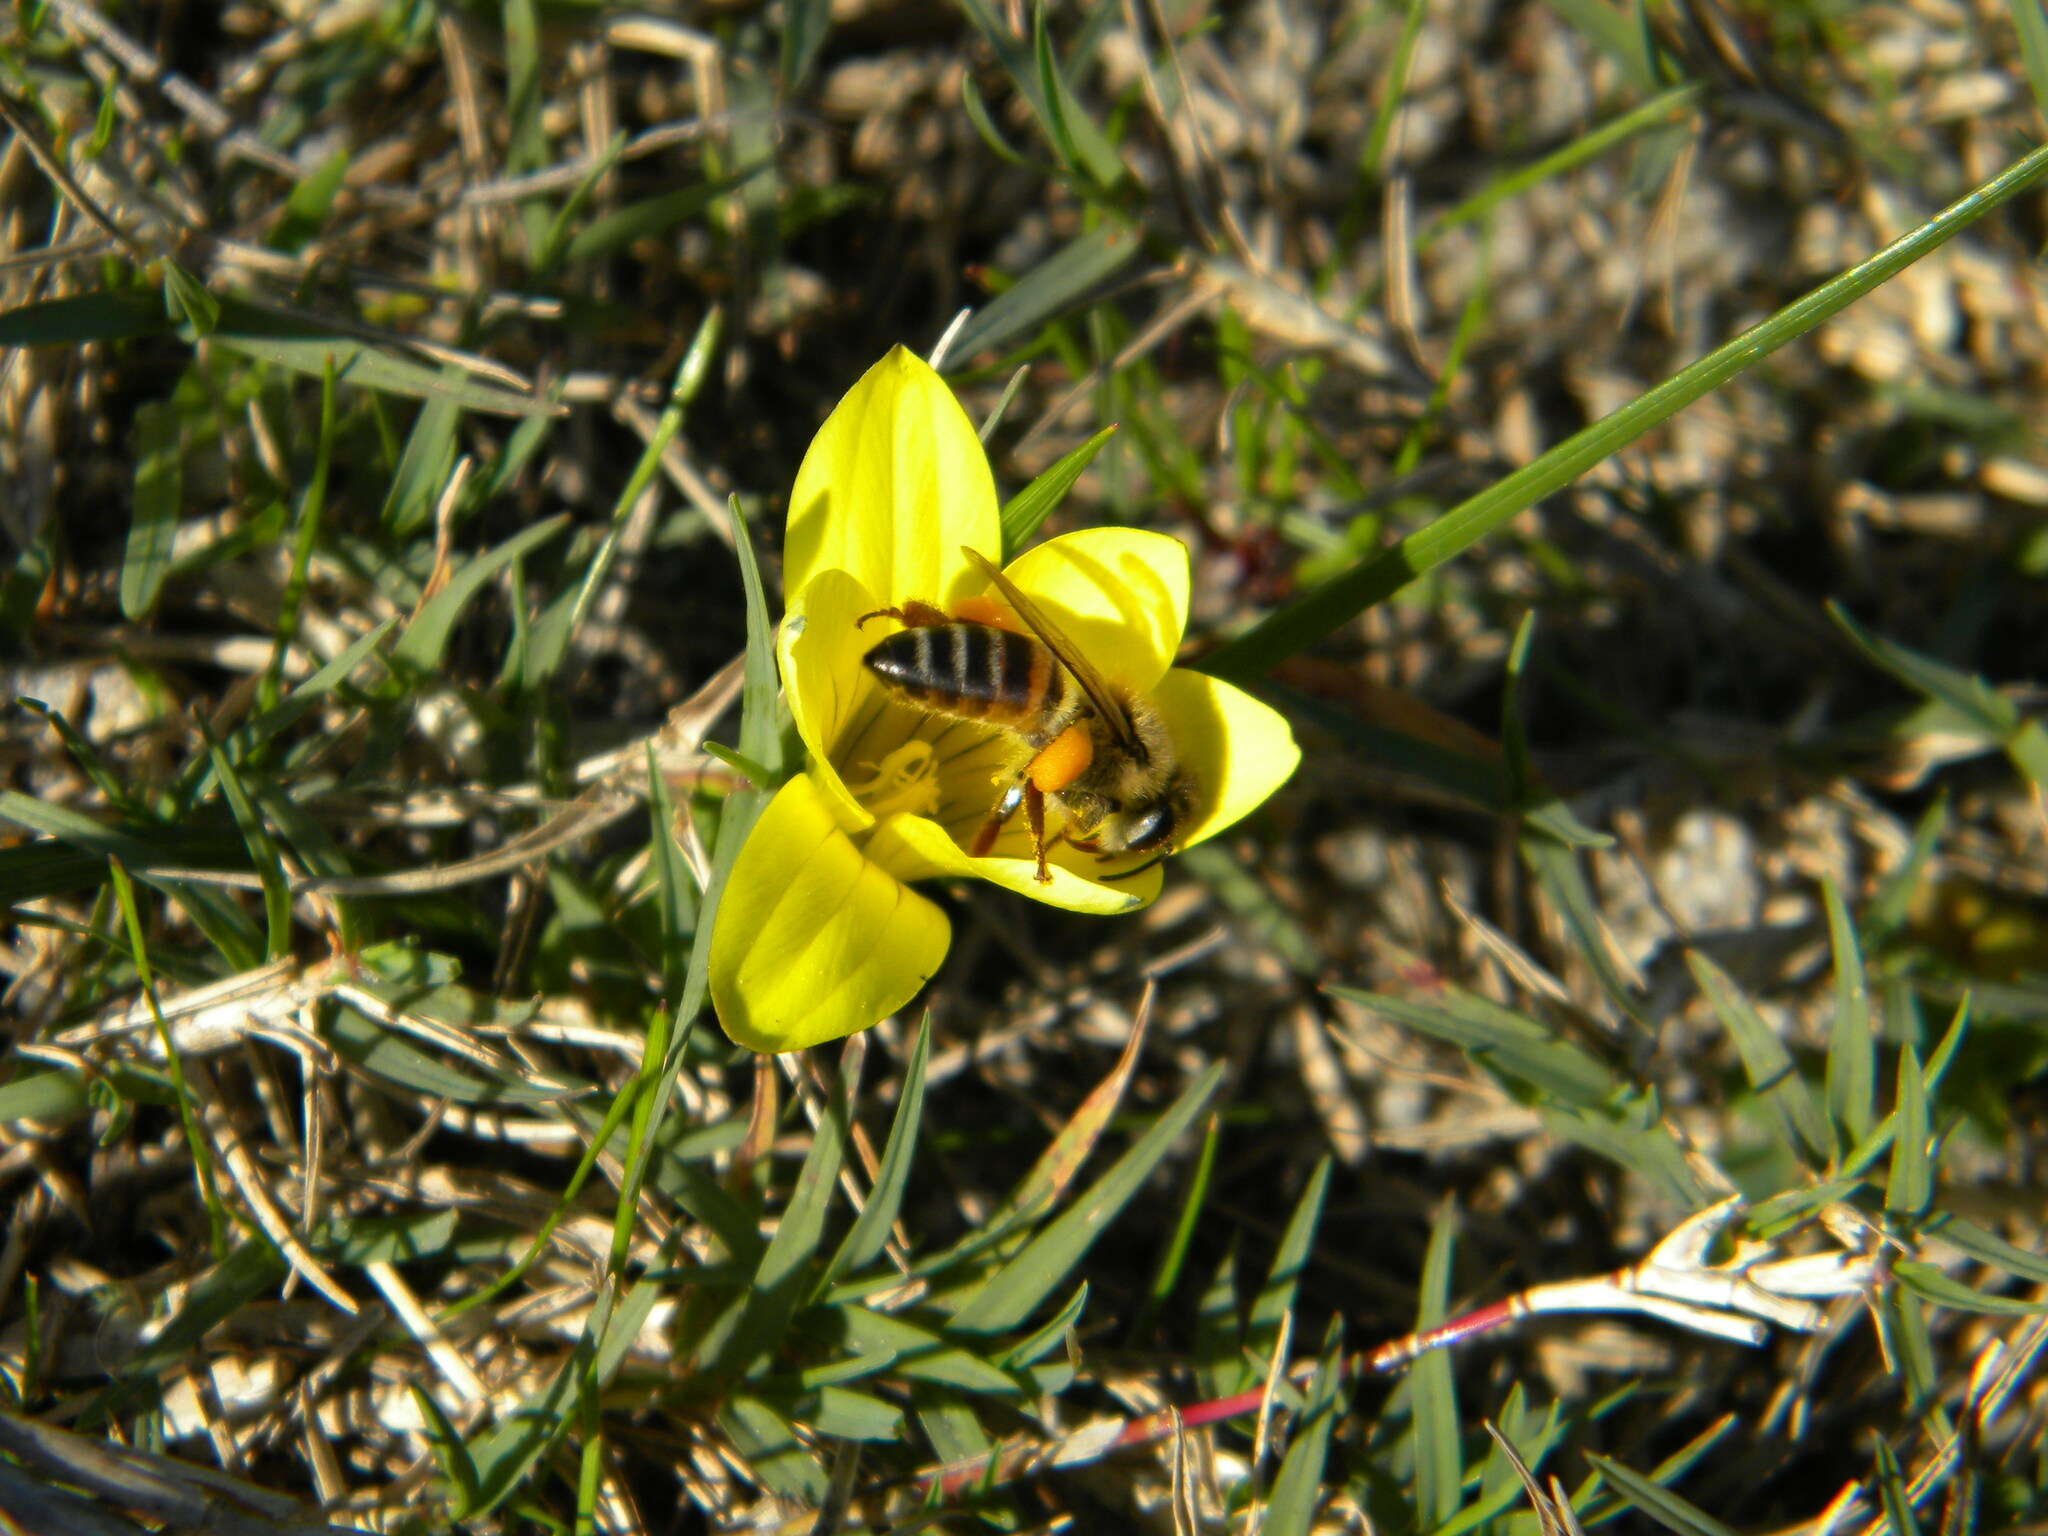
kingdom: Animalia
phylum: Arthropoda
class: Insecta
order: Hymenoptera
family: Apidae
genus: Apis
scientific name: Apis mellifera
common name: Honey bee
